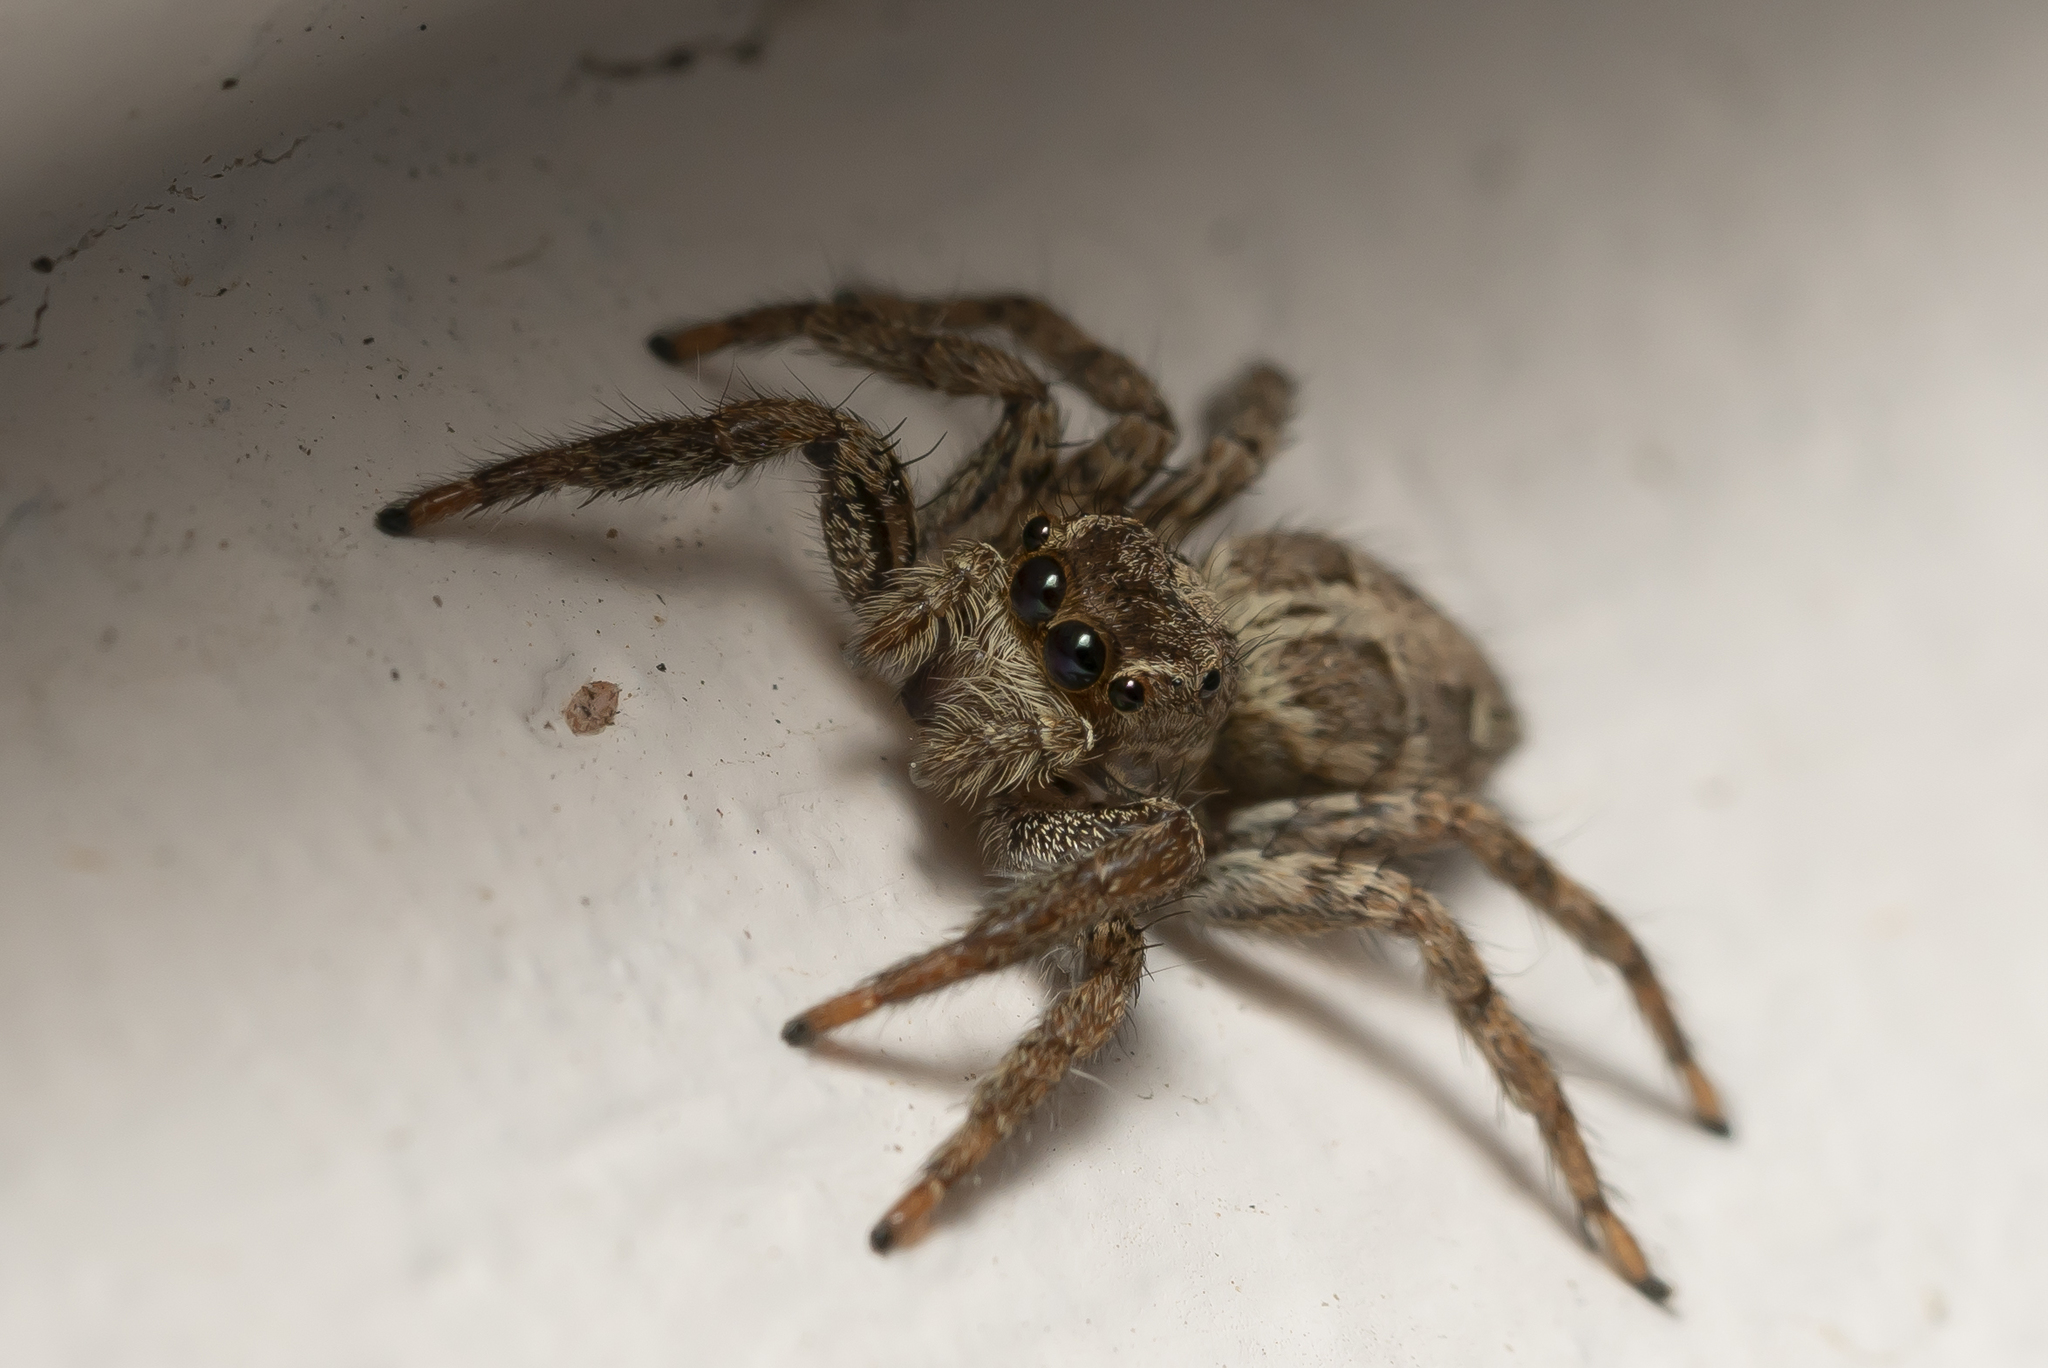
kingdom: Animalia
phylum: Arthropoda
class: Arachnida
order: Araneae
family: Salticidae
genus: Plexippus
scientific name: Plexippus paykulli
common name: Pantropical jumper
